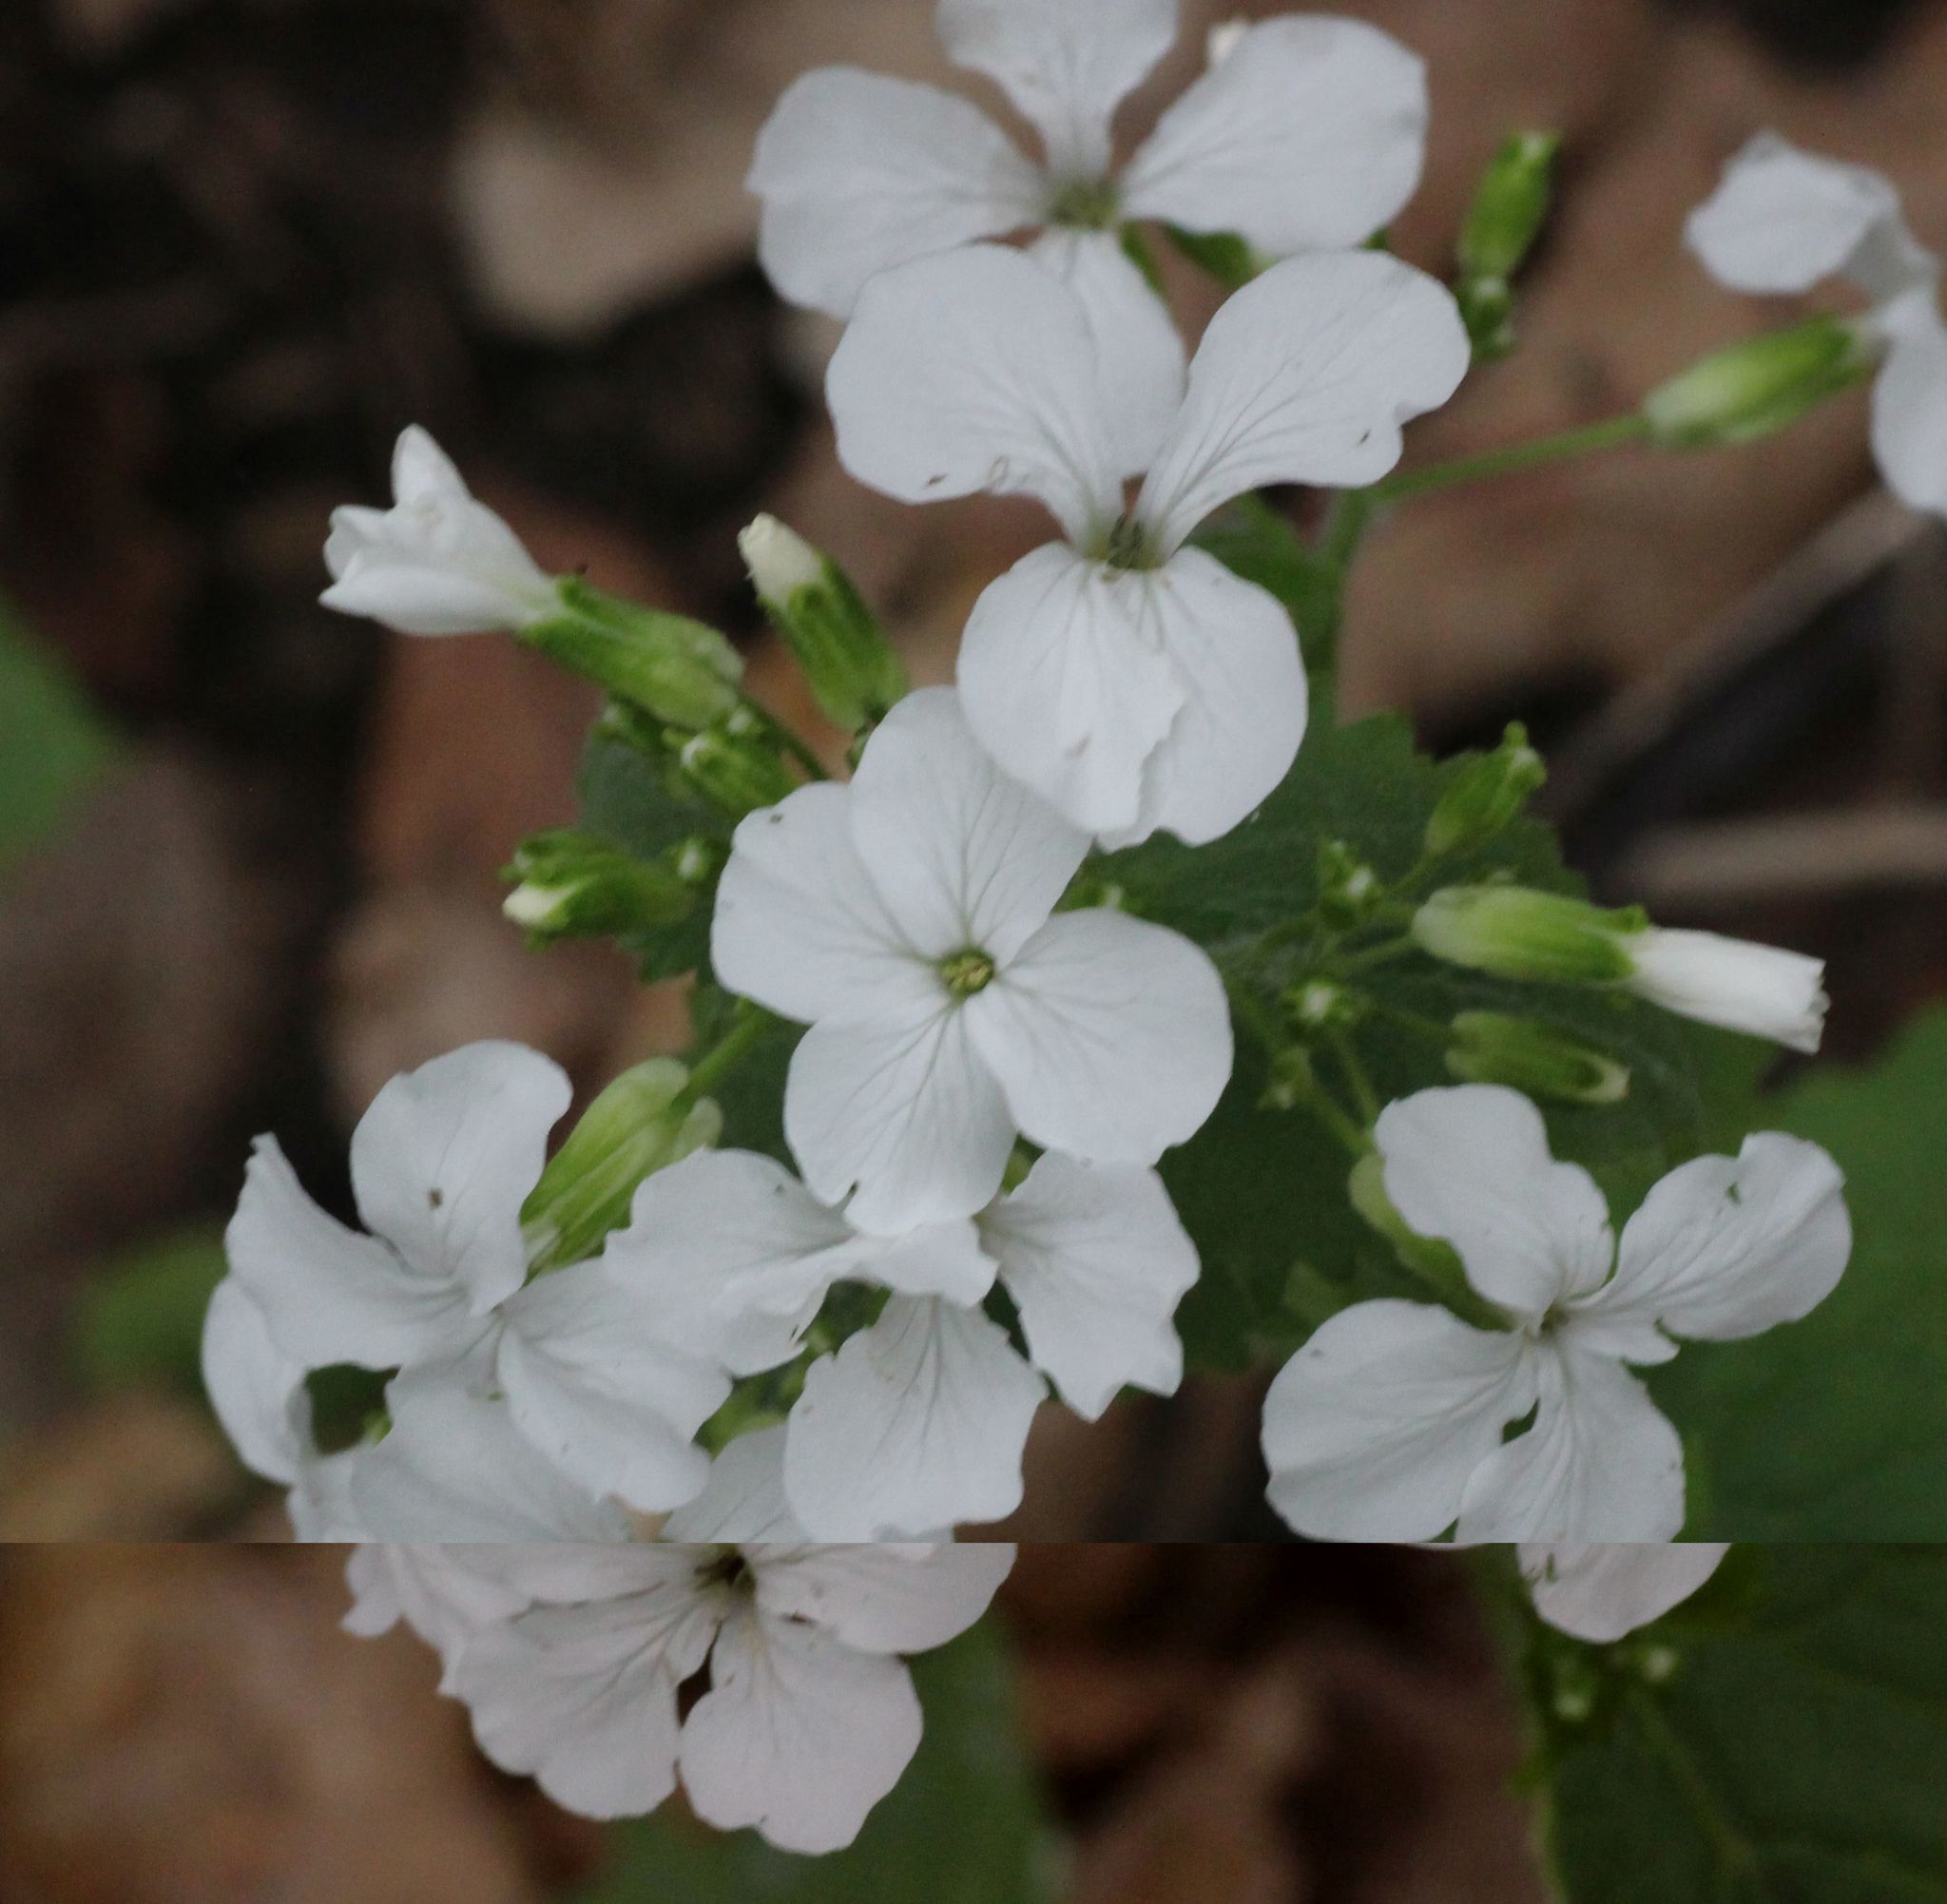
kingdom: Plantae
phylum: Tracheophyta
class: Magnoliopsida
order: Brassicales
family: Brassicaceae
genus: Lunaria
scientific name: Lunaria annua
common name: Honesty
